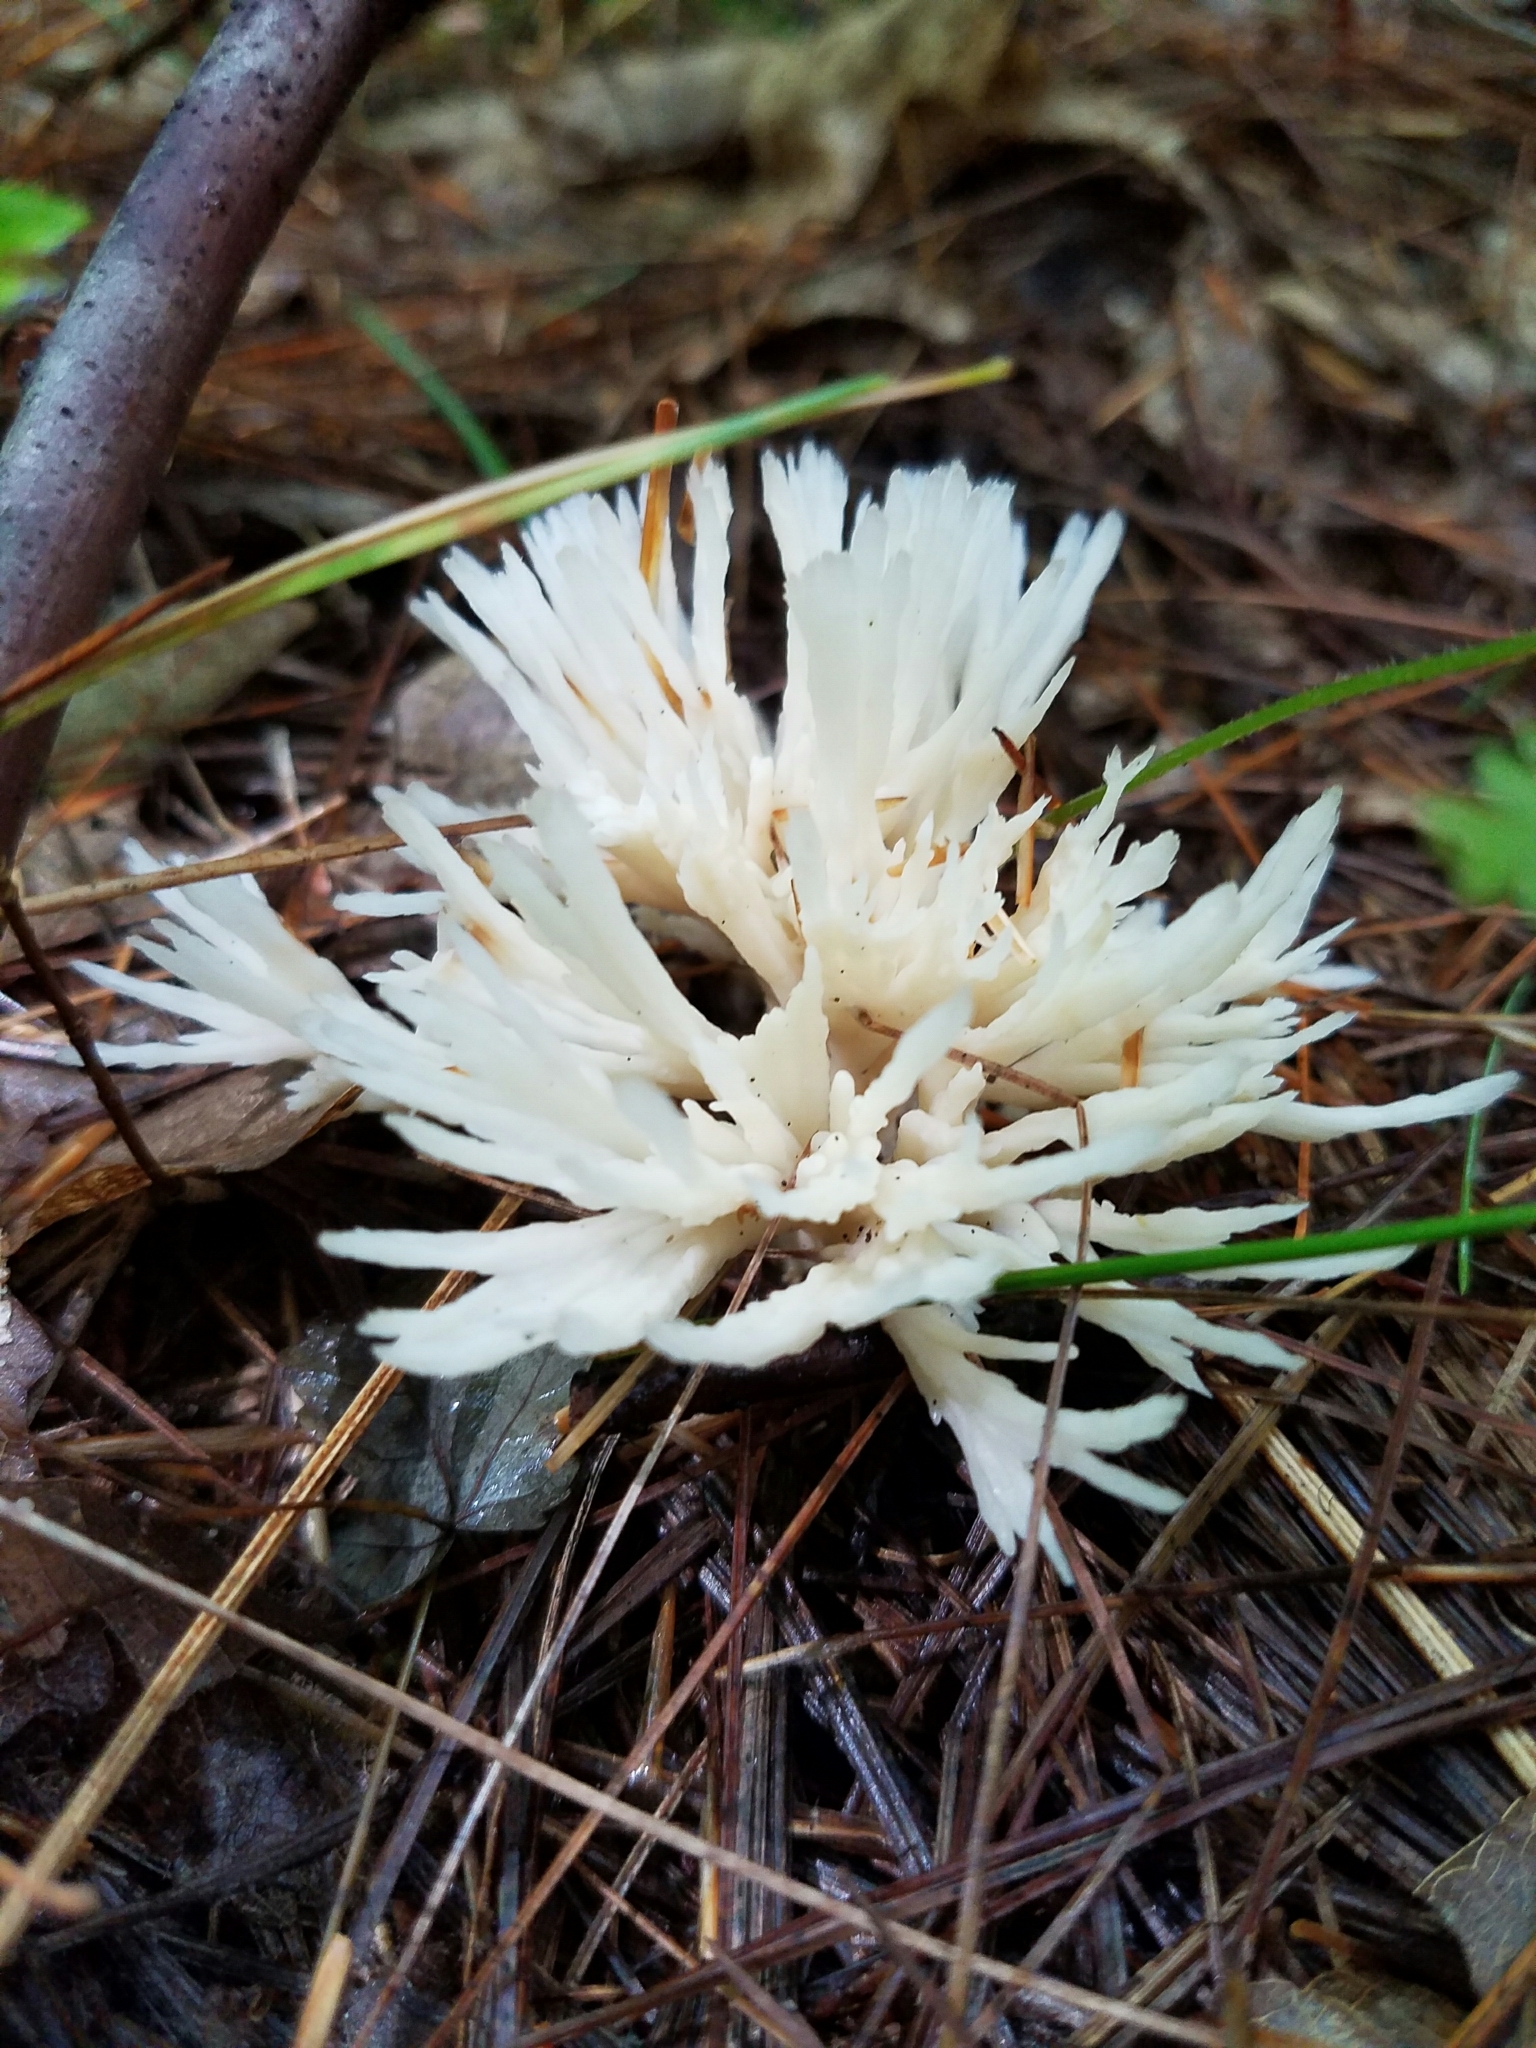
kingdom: Fungi
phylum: Basidiomycota
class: Agaricomycetes
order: Sebacinales
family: Sebacinaceae
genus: Sebacina
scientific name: Sebacina schweinitzii
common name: Jellied false coral fungus
